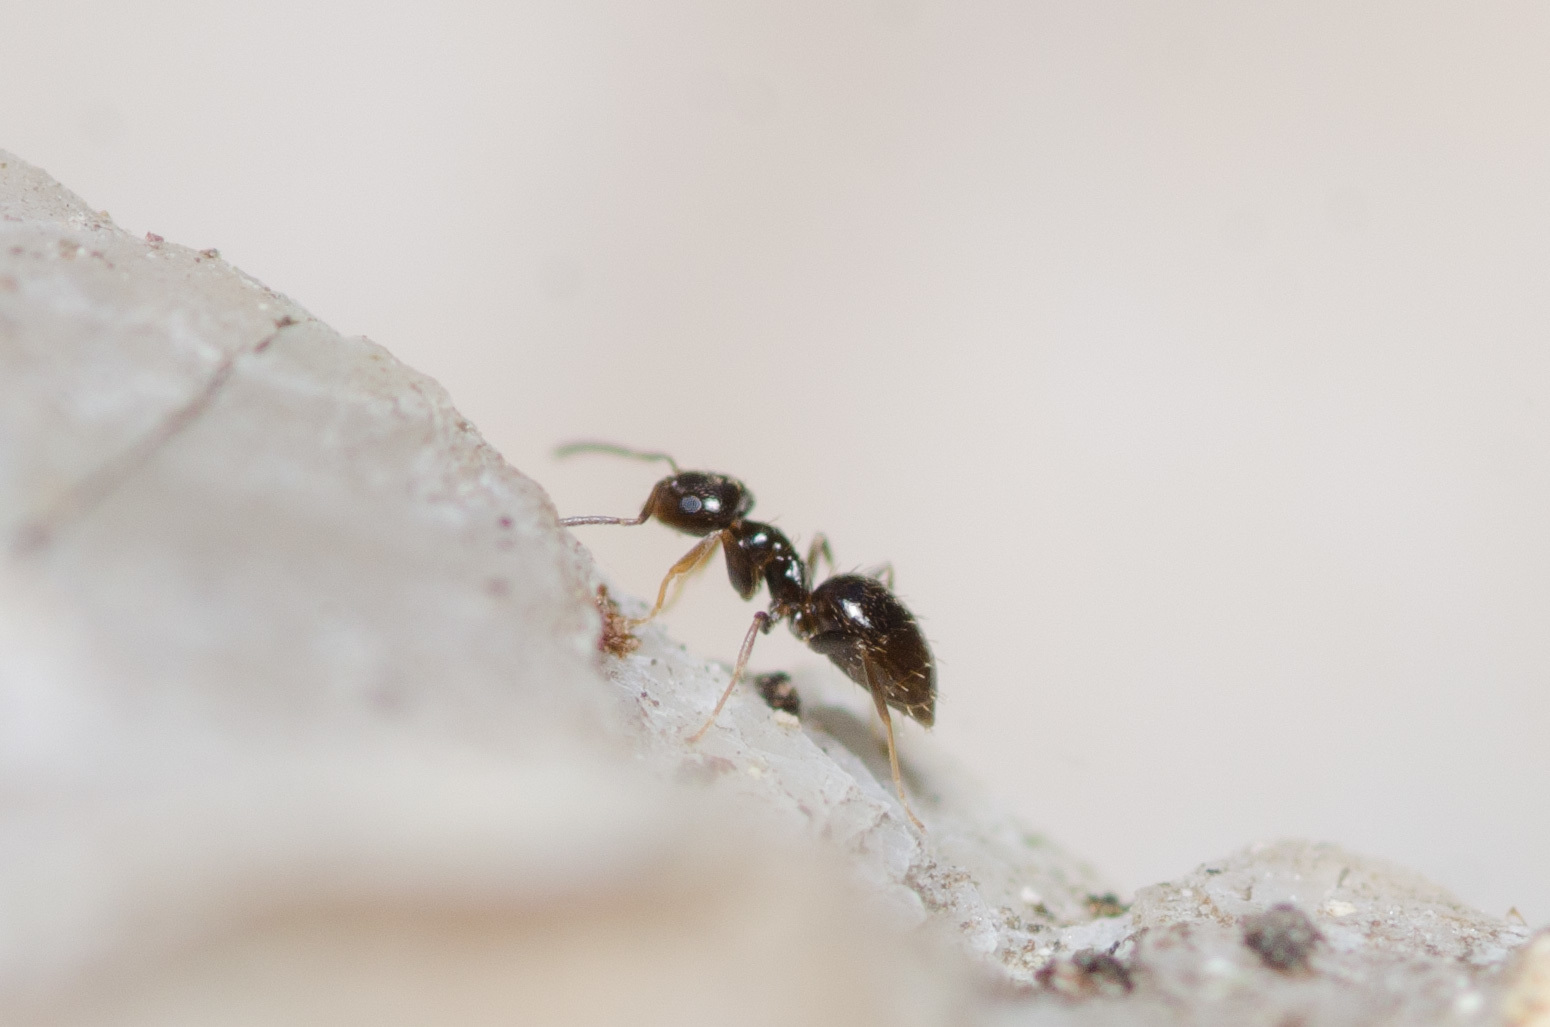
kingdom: Animalia
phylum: Arthropoda
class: Insecta
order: Hymenoptera
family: Formicidae
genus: Brachymyrmex
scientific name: Brachymyrmex patagonicus
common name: Dark rover ant
